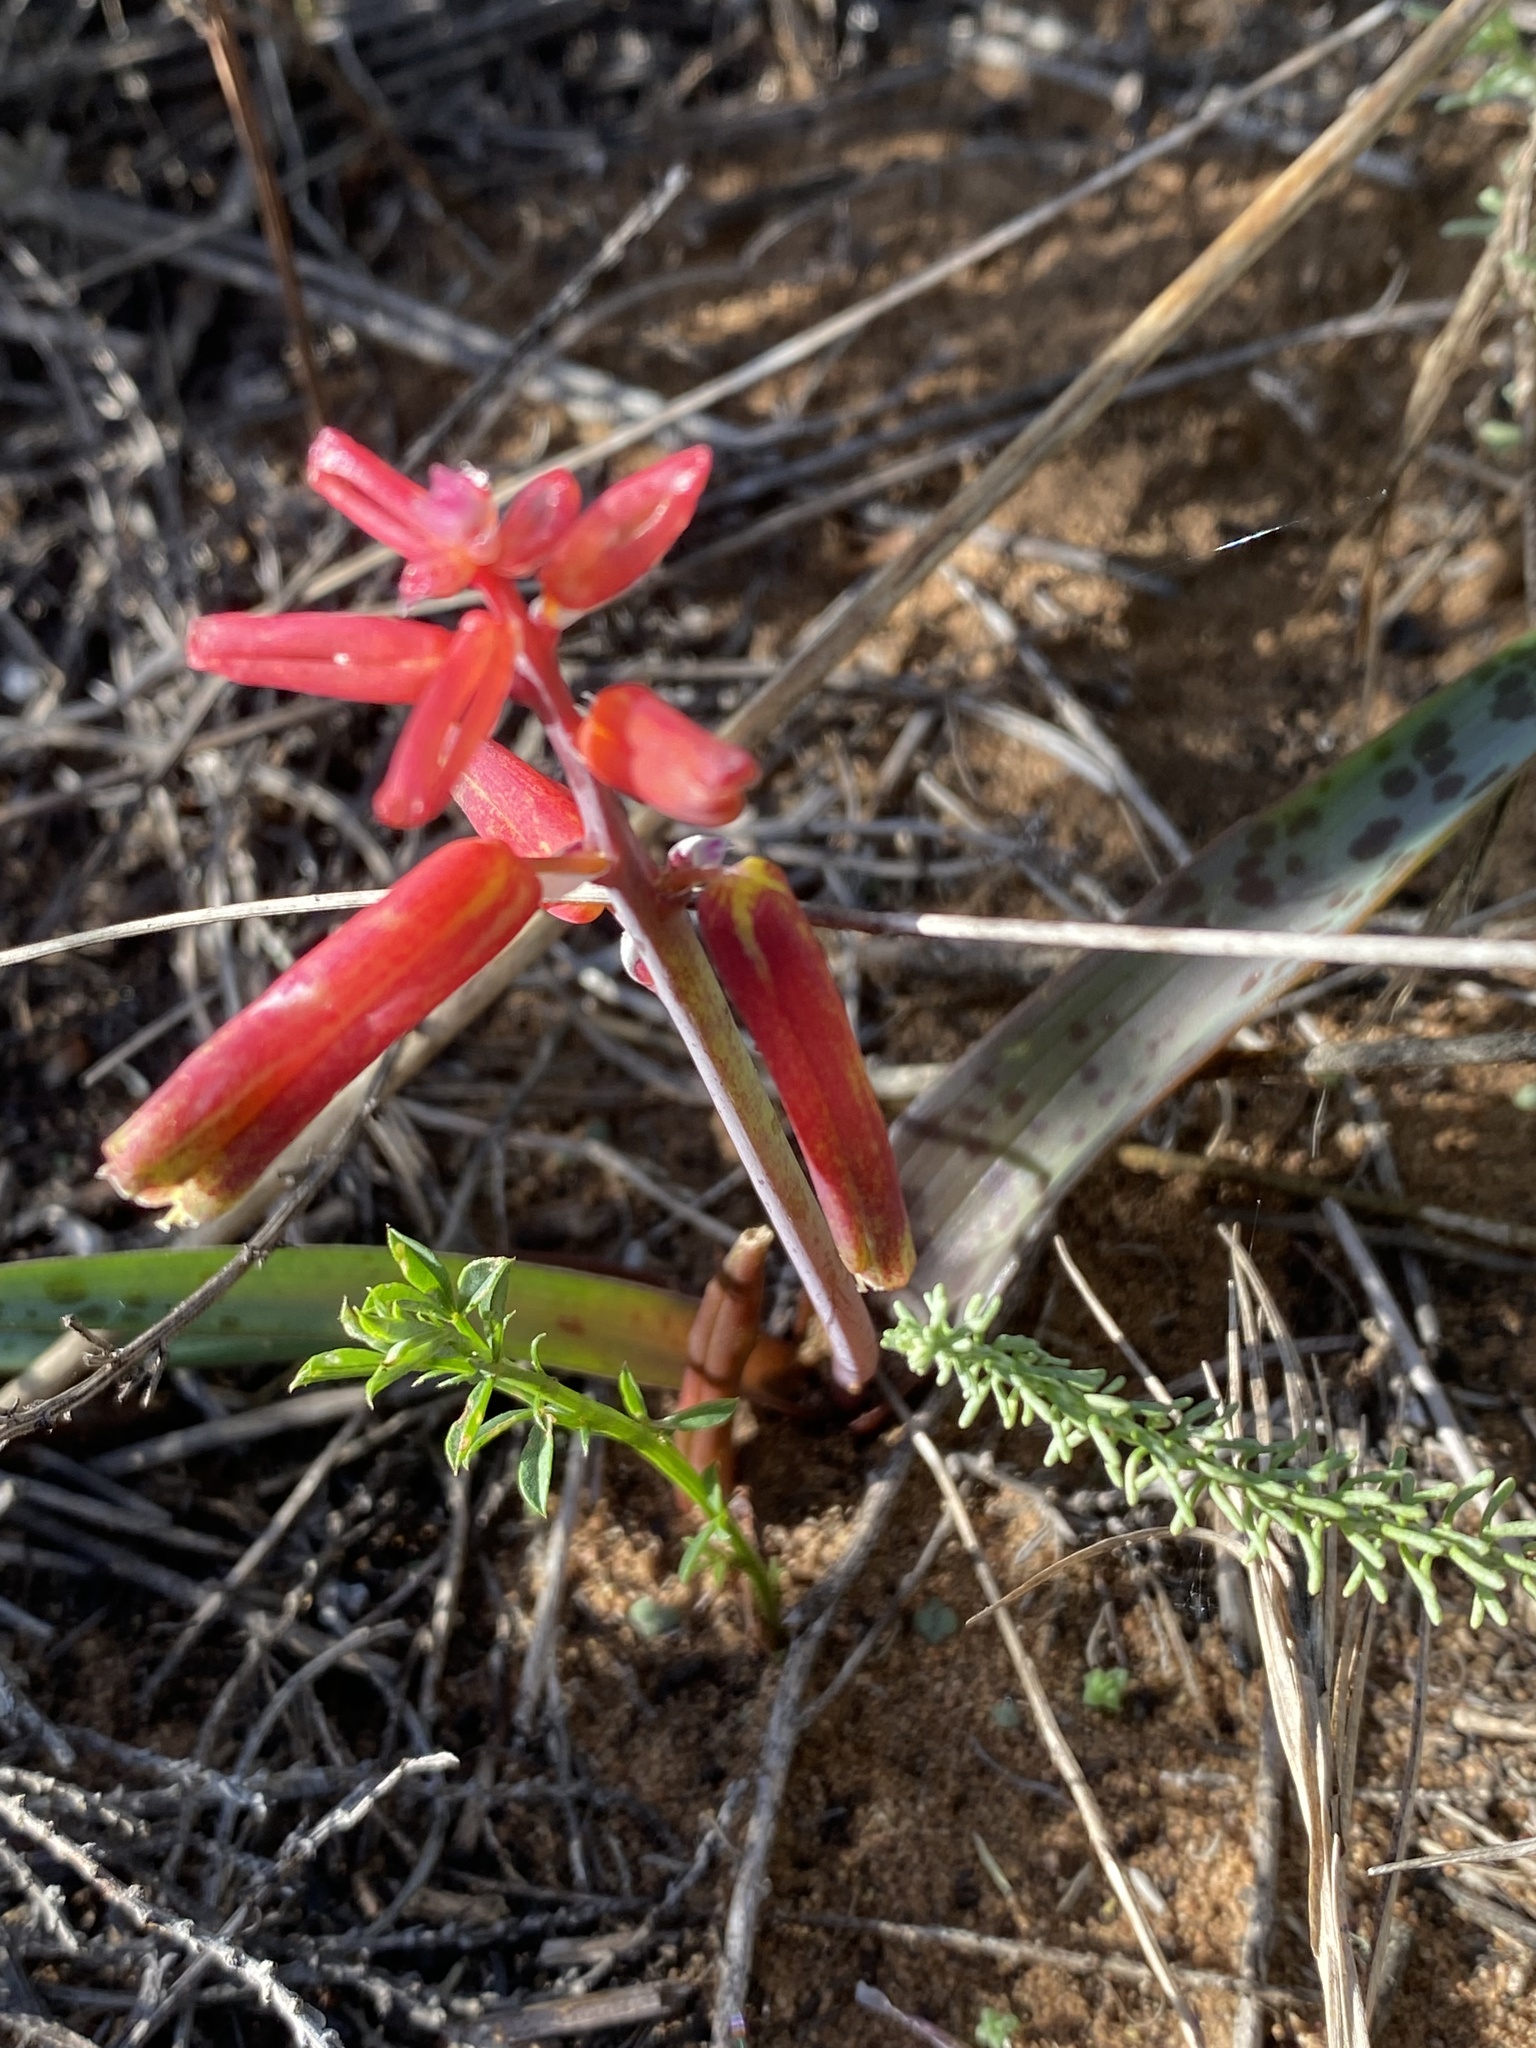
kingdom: Plantae
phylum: Tracheophyta
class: Liliopsida
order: Asparagales
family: Asparagaceae
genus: Lachenalia
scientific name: Lachenalia bulbifera
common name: Red lachenalia
